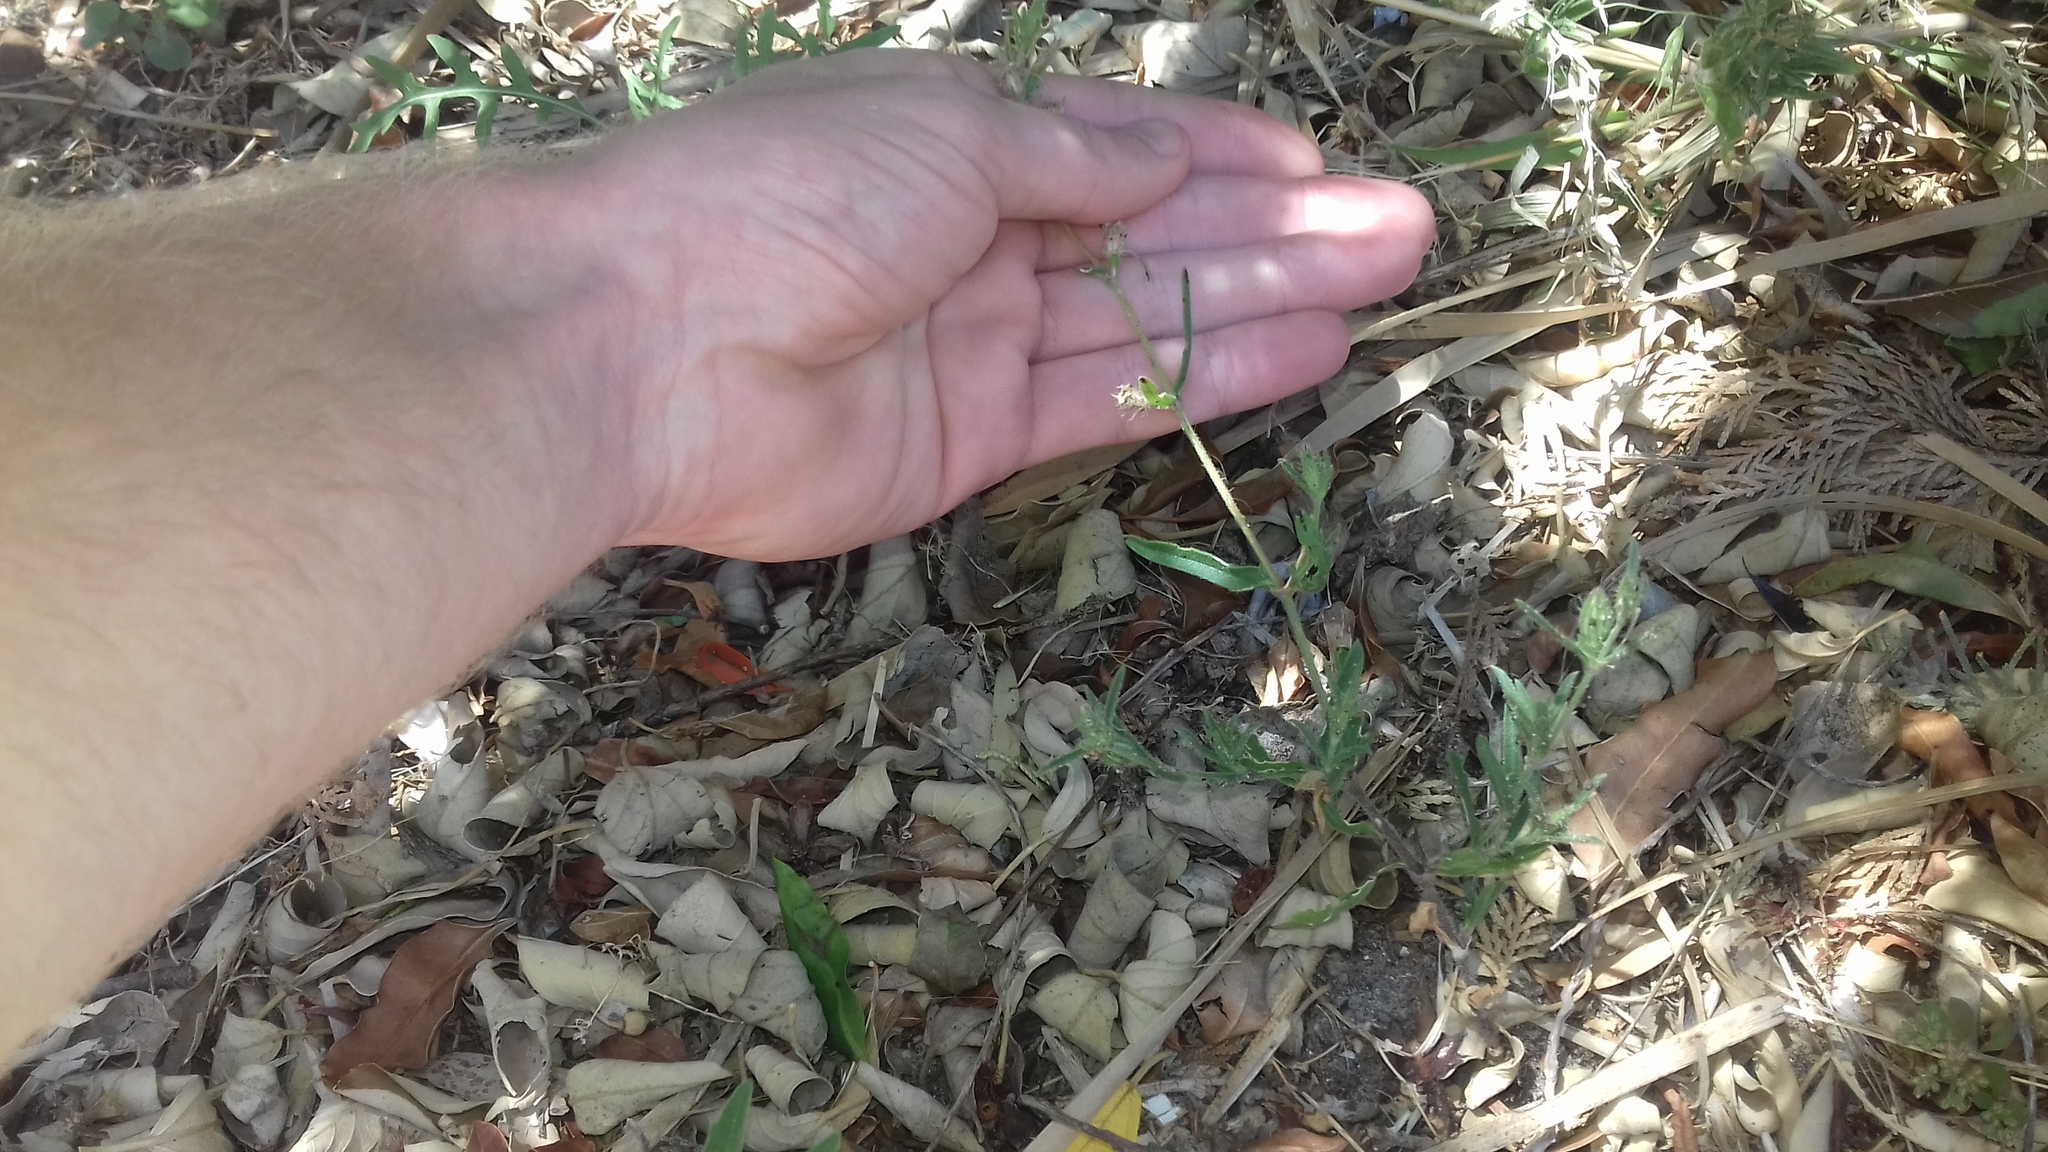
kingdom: Plantae
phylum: Tracheophyta
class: Magnoliopsida
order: Caryophyllales
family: Caryophyllaceae
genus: Silene
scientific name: Silene gallica
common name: Small-flowered catchfly
